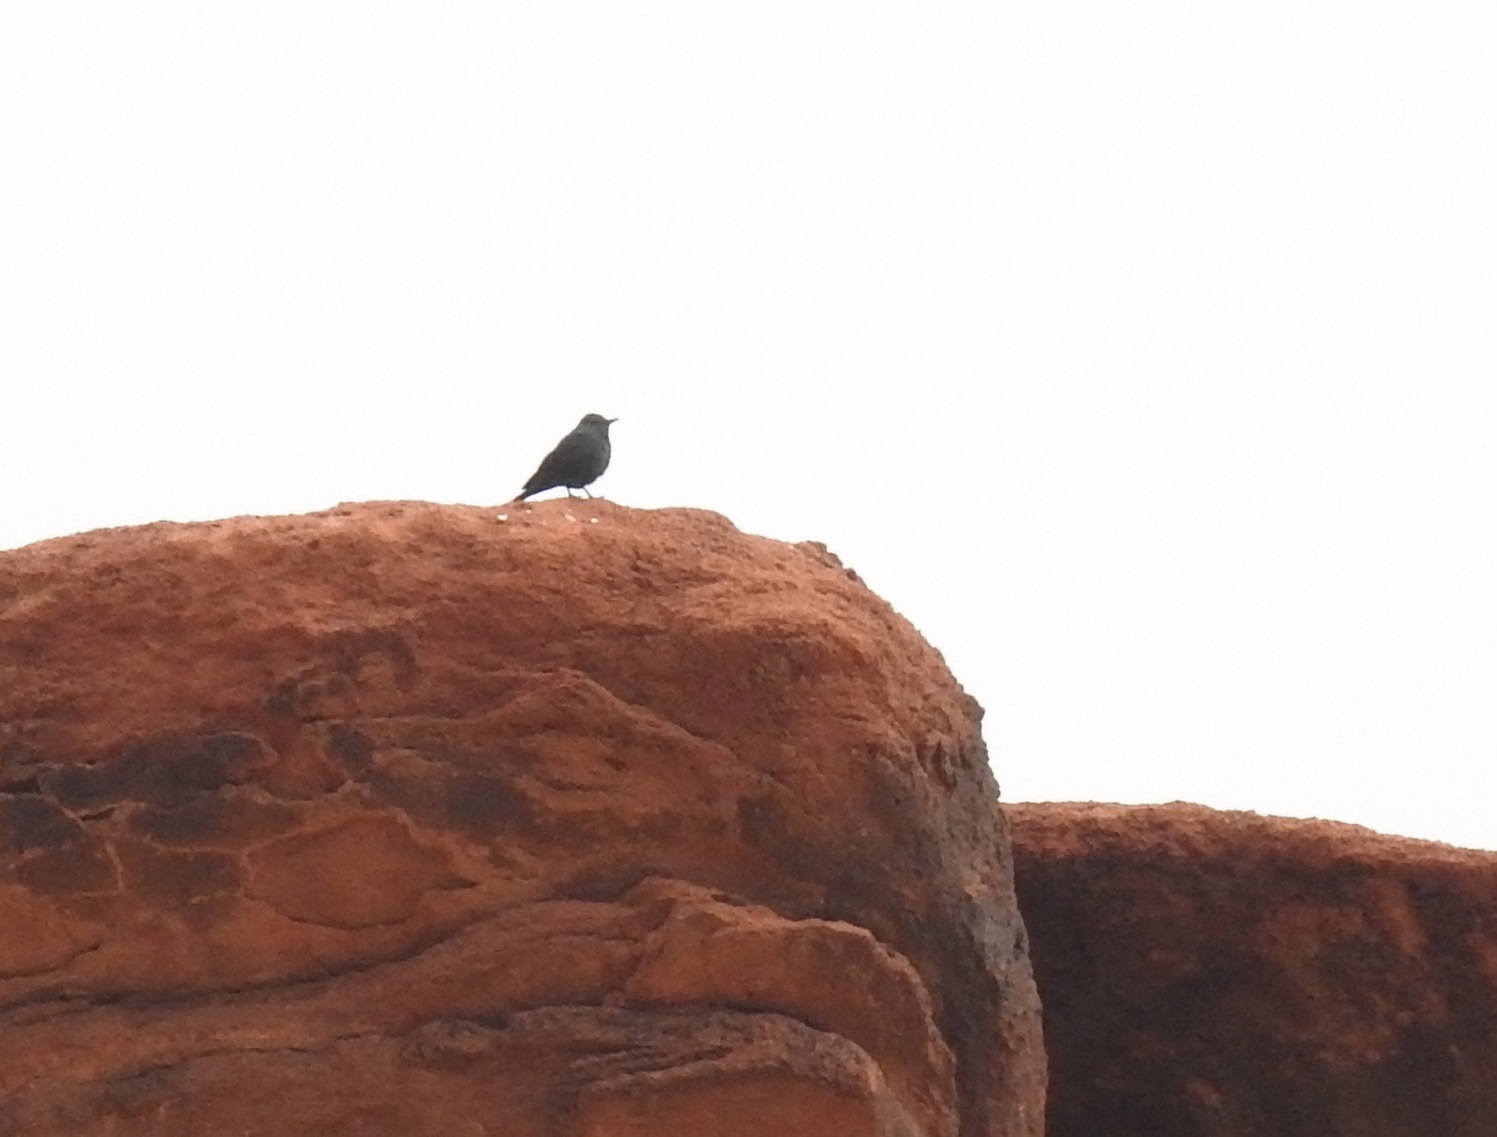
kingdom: Animalia
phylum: Chordata
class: Aves
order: Passeriformes
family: Muscicapidae
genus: Monticola
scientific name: Monticola solitarius
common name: Blue rock thrush
